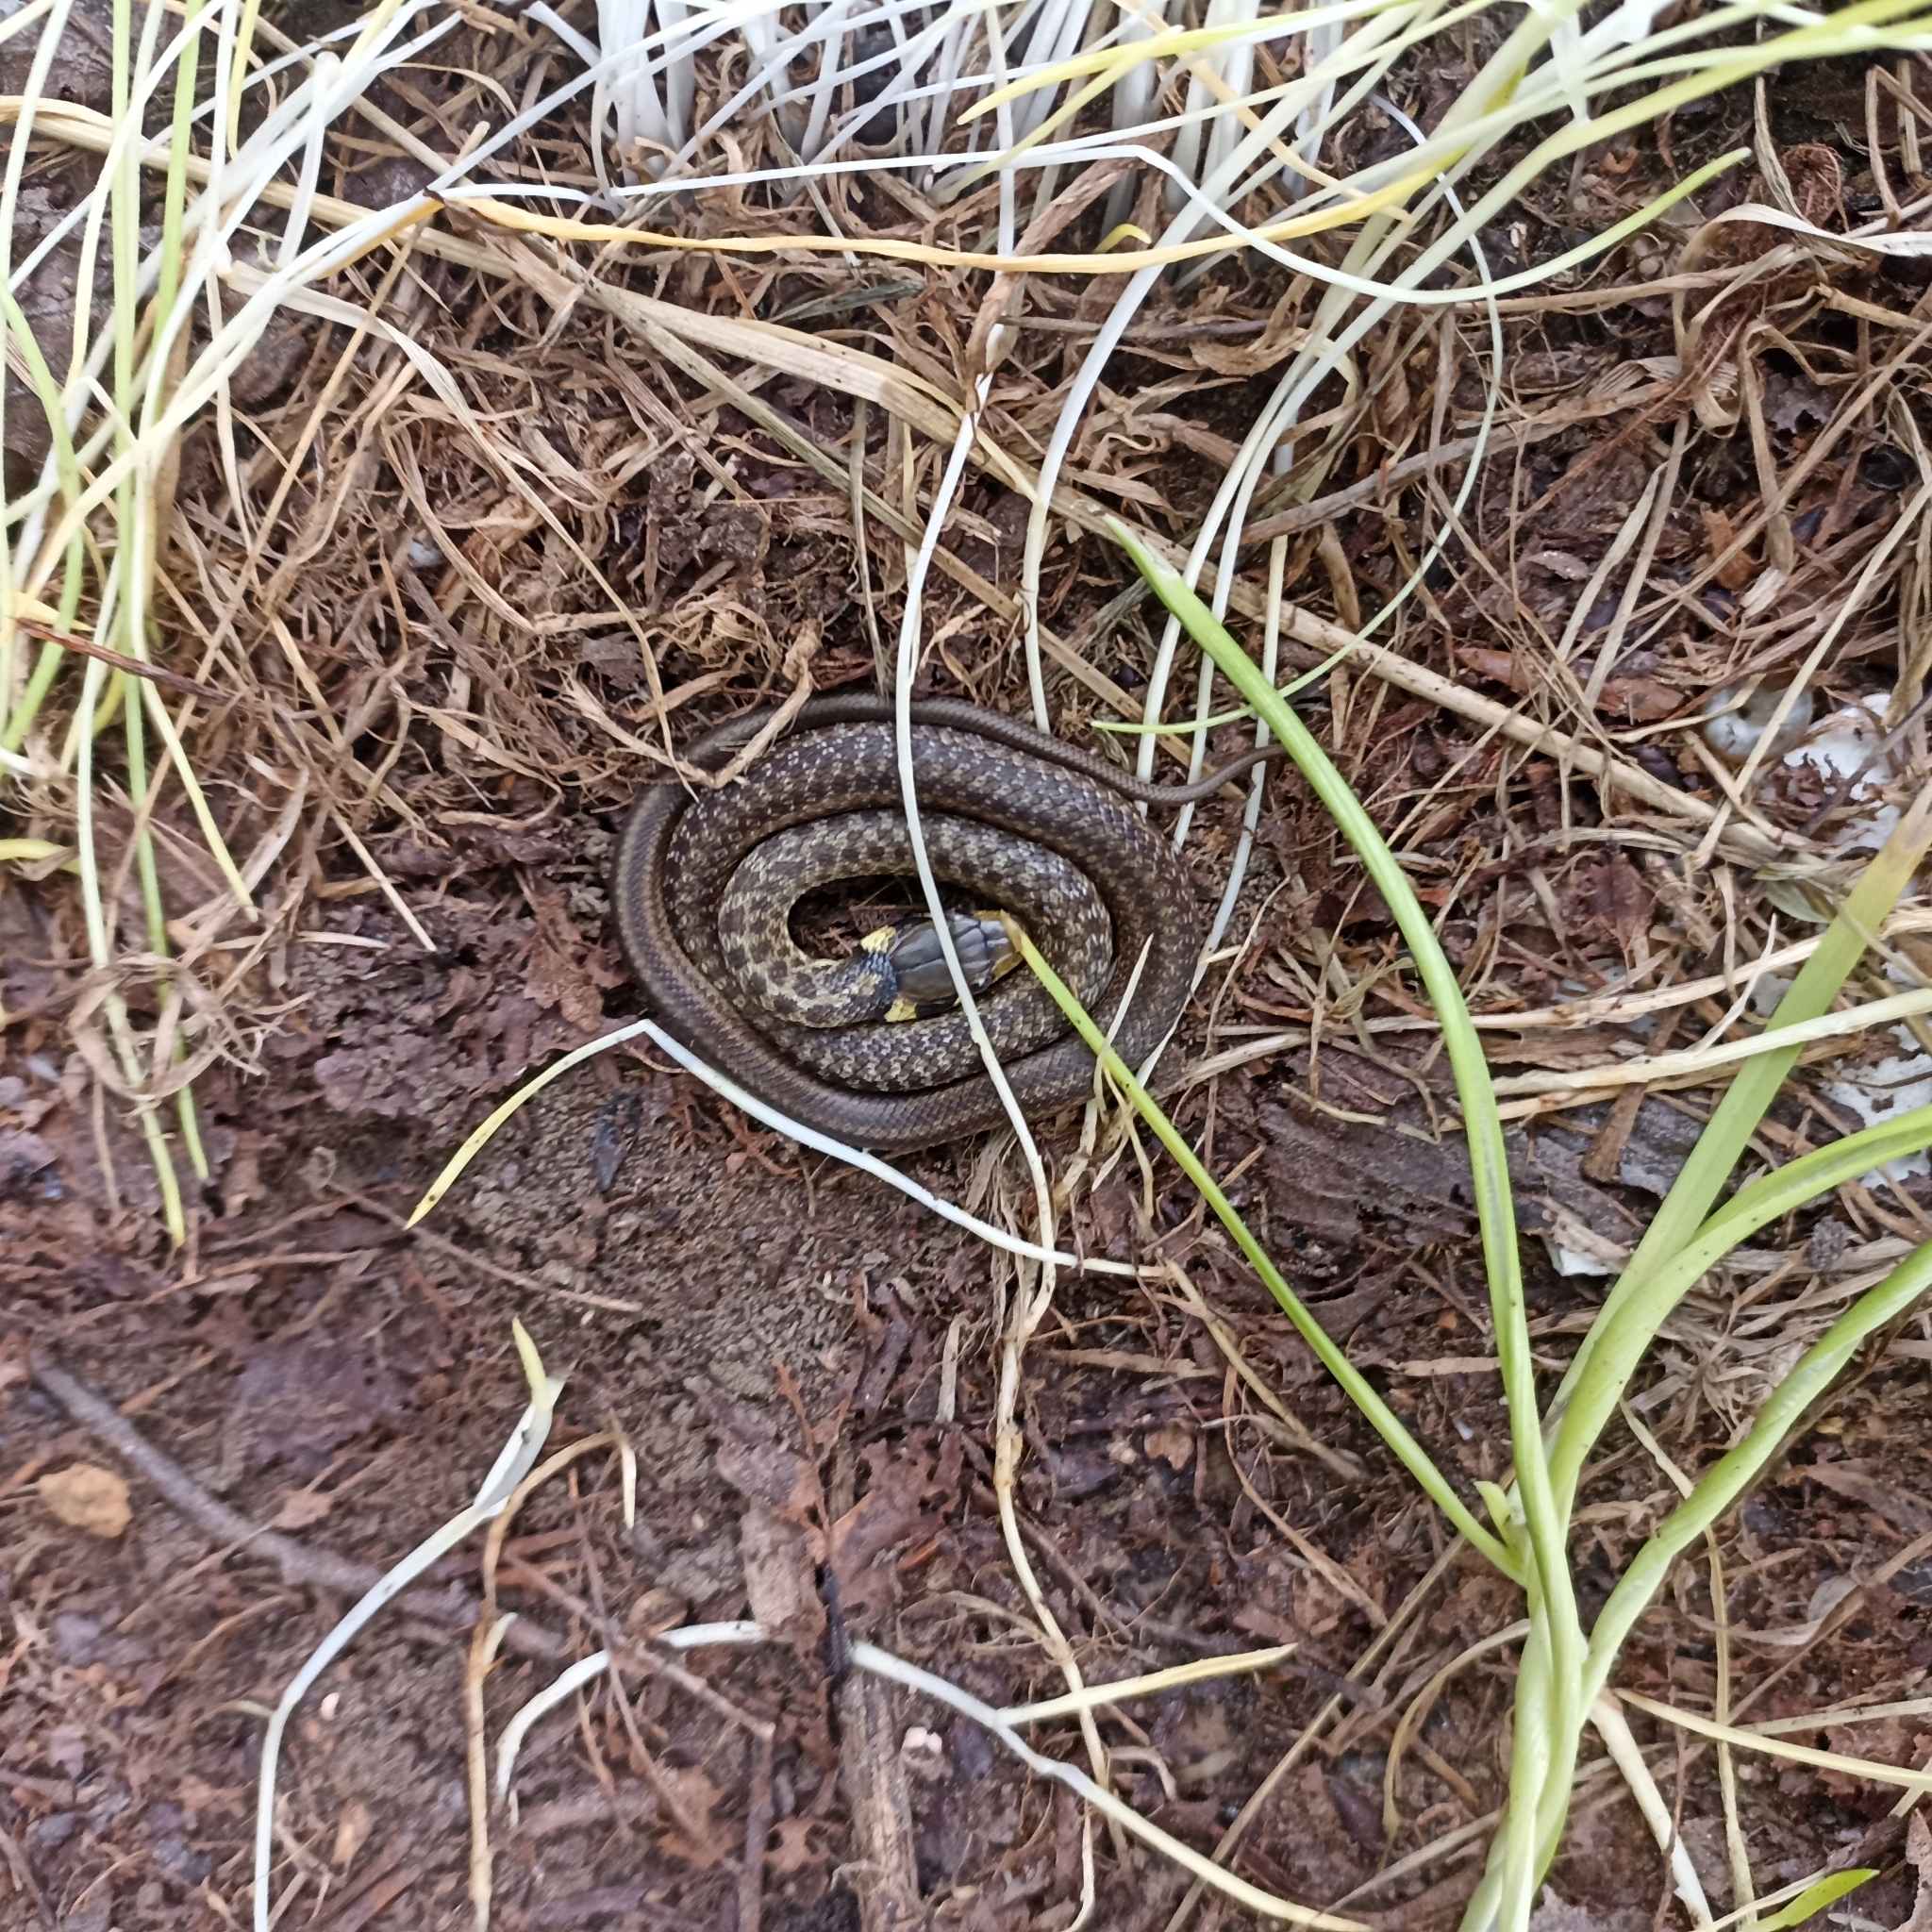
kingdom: Animalia
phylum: Chordata
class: Squamata
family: Colubridae
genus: Zamenis
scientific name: Zamenis longissimus
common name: Aesculapean snake
